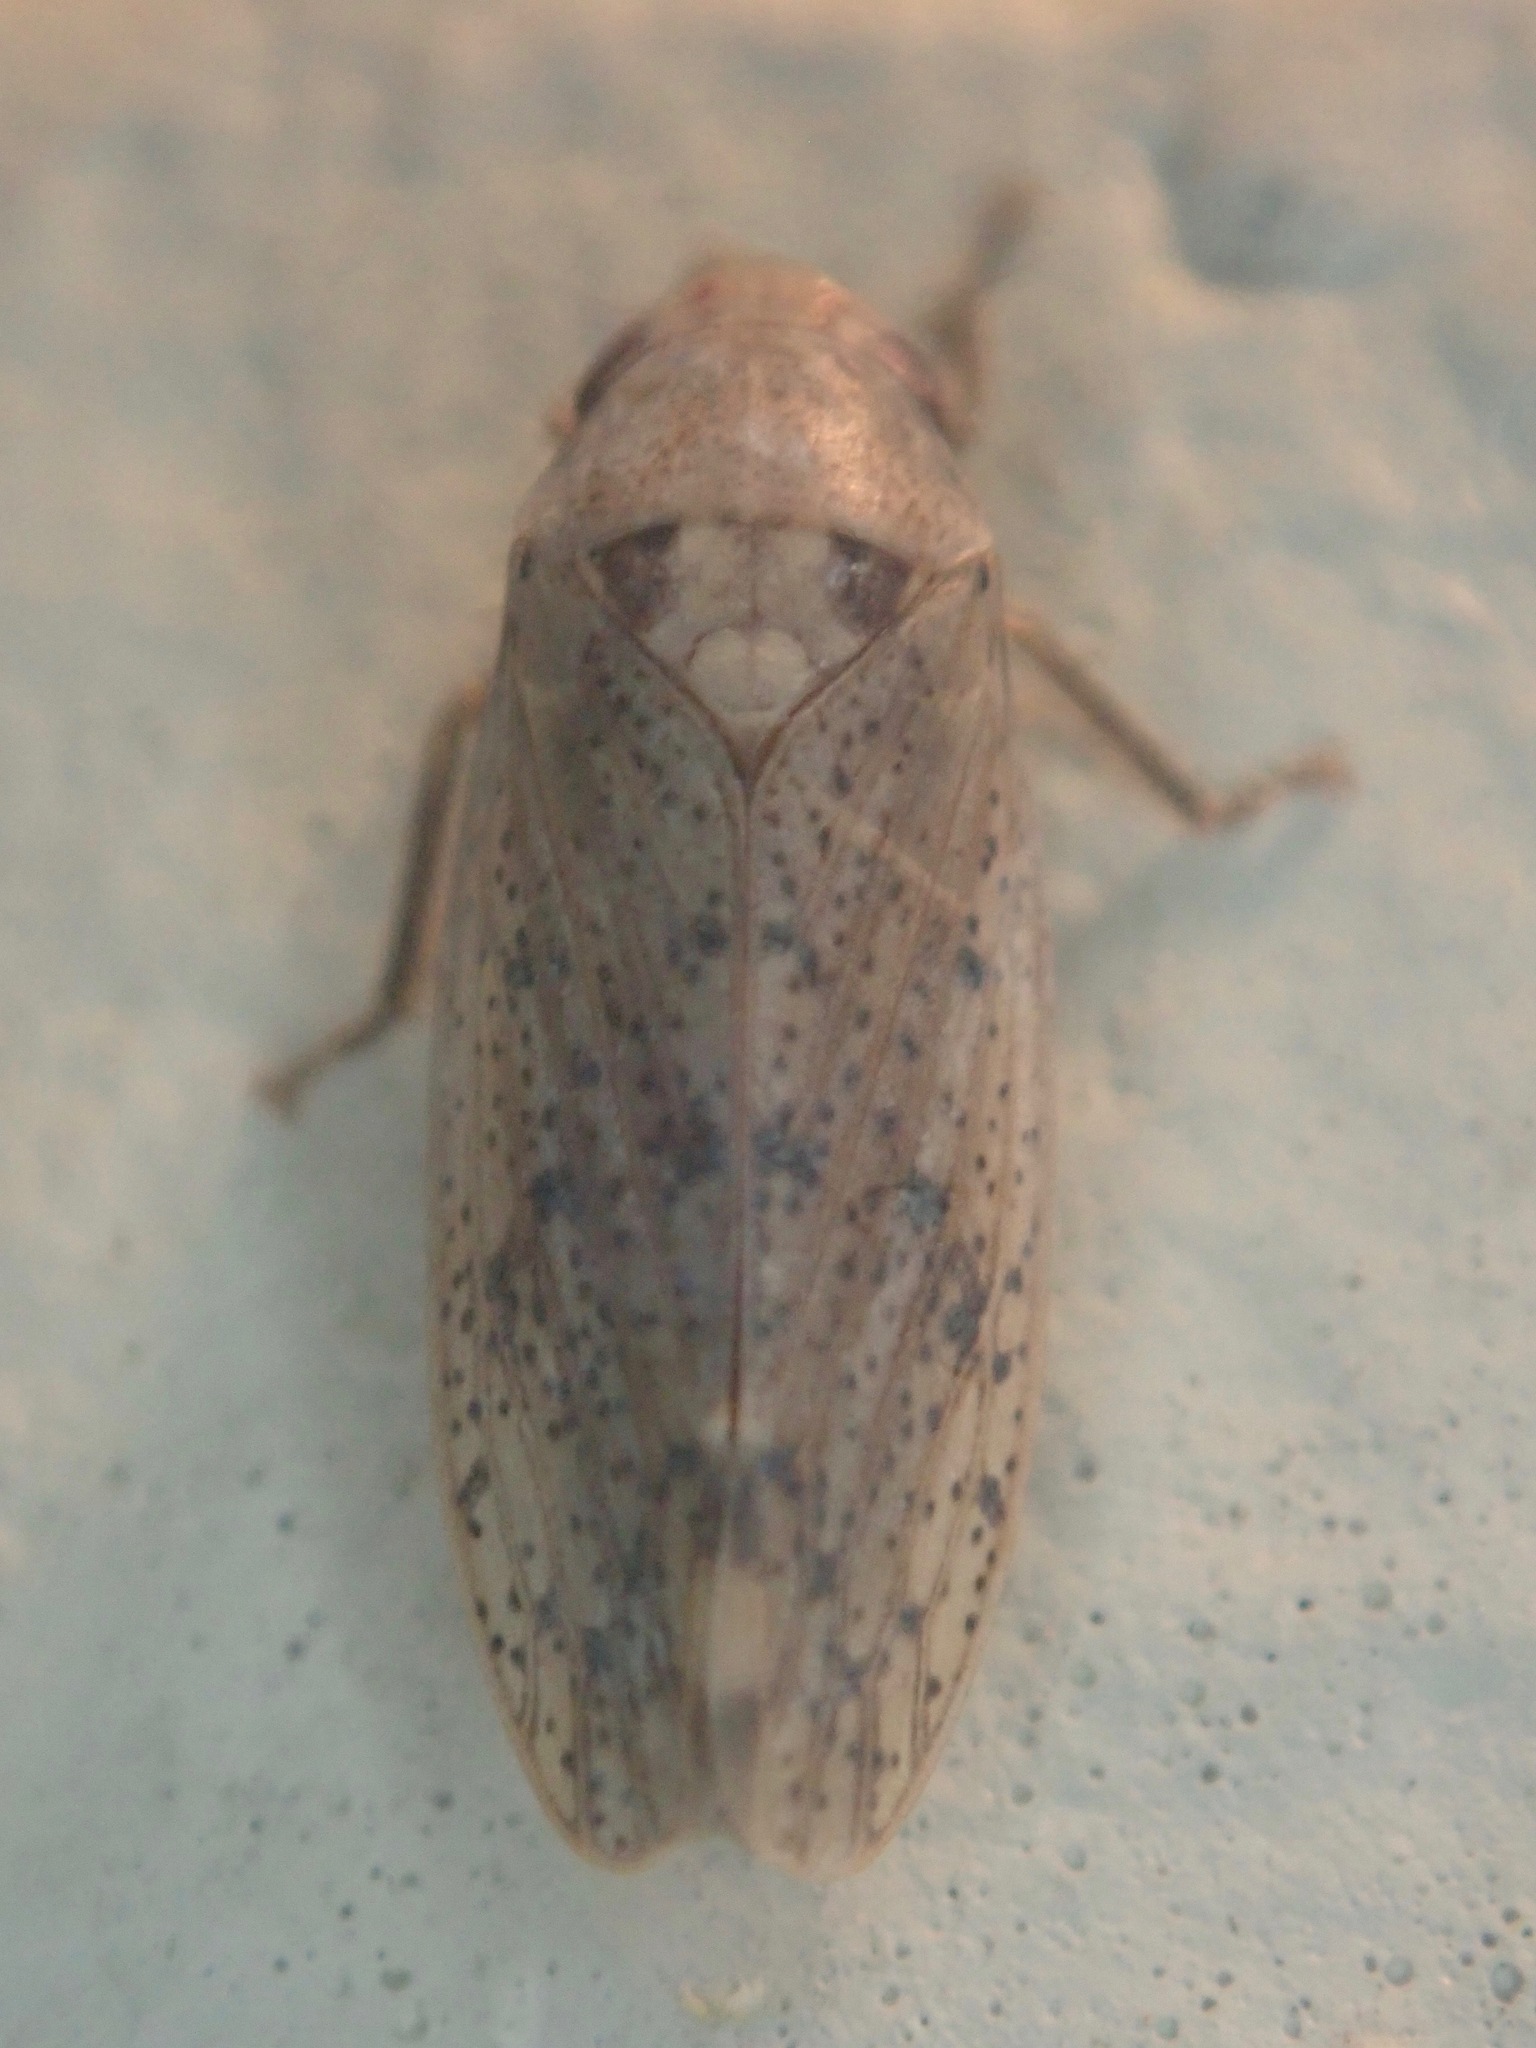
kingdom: Animalia
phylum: Arthropoda
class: Insecta
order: Hemiptera
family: Cicadellidae
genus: Ponana
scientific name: Ponana puncticollis
